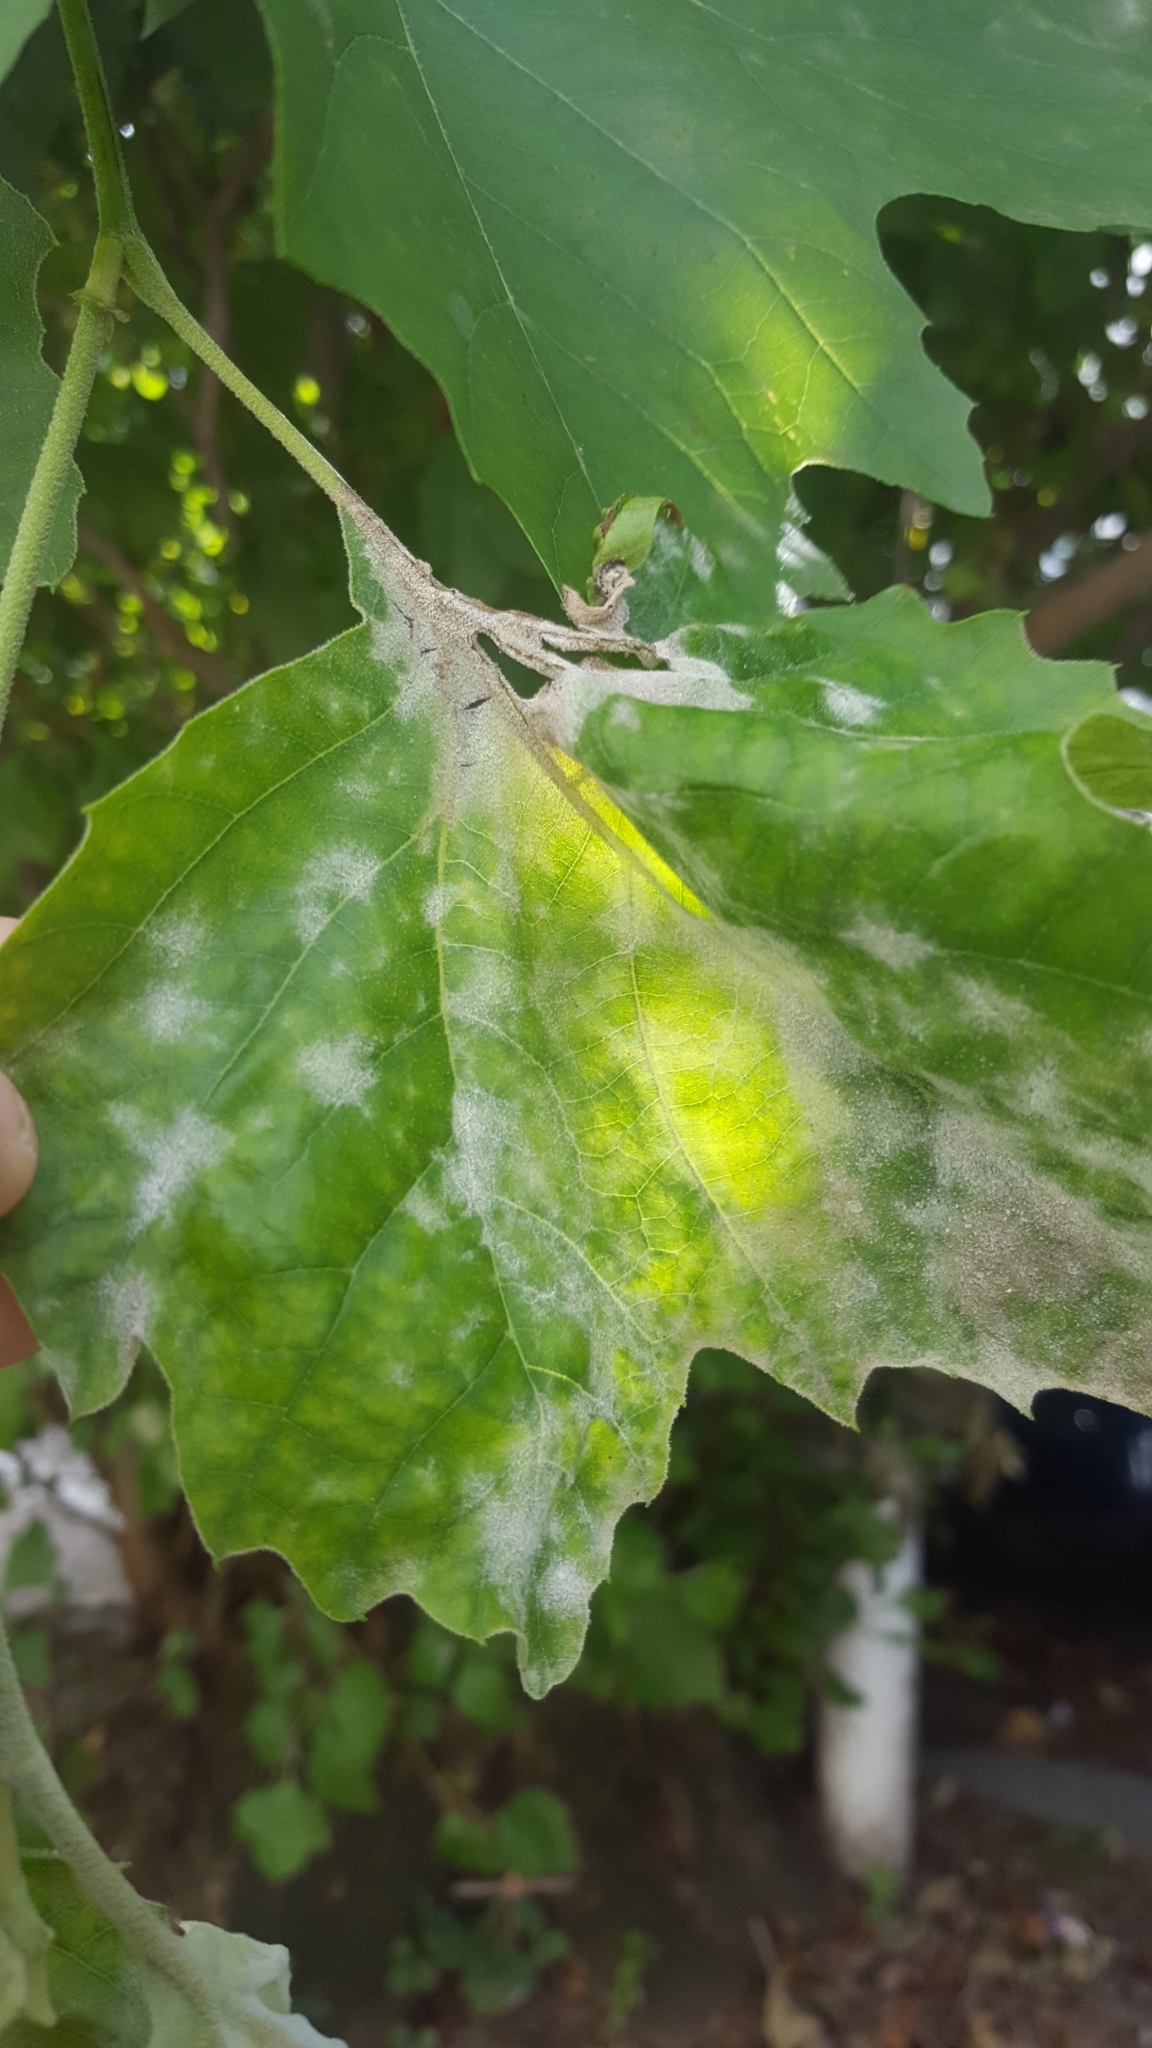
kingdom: Fungi
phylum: Ascomycota
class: Leotiomycetes
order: Helotiales
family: Erysiphaceae
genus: Erysiphe
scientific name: Erysiphe platani
